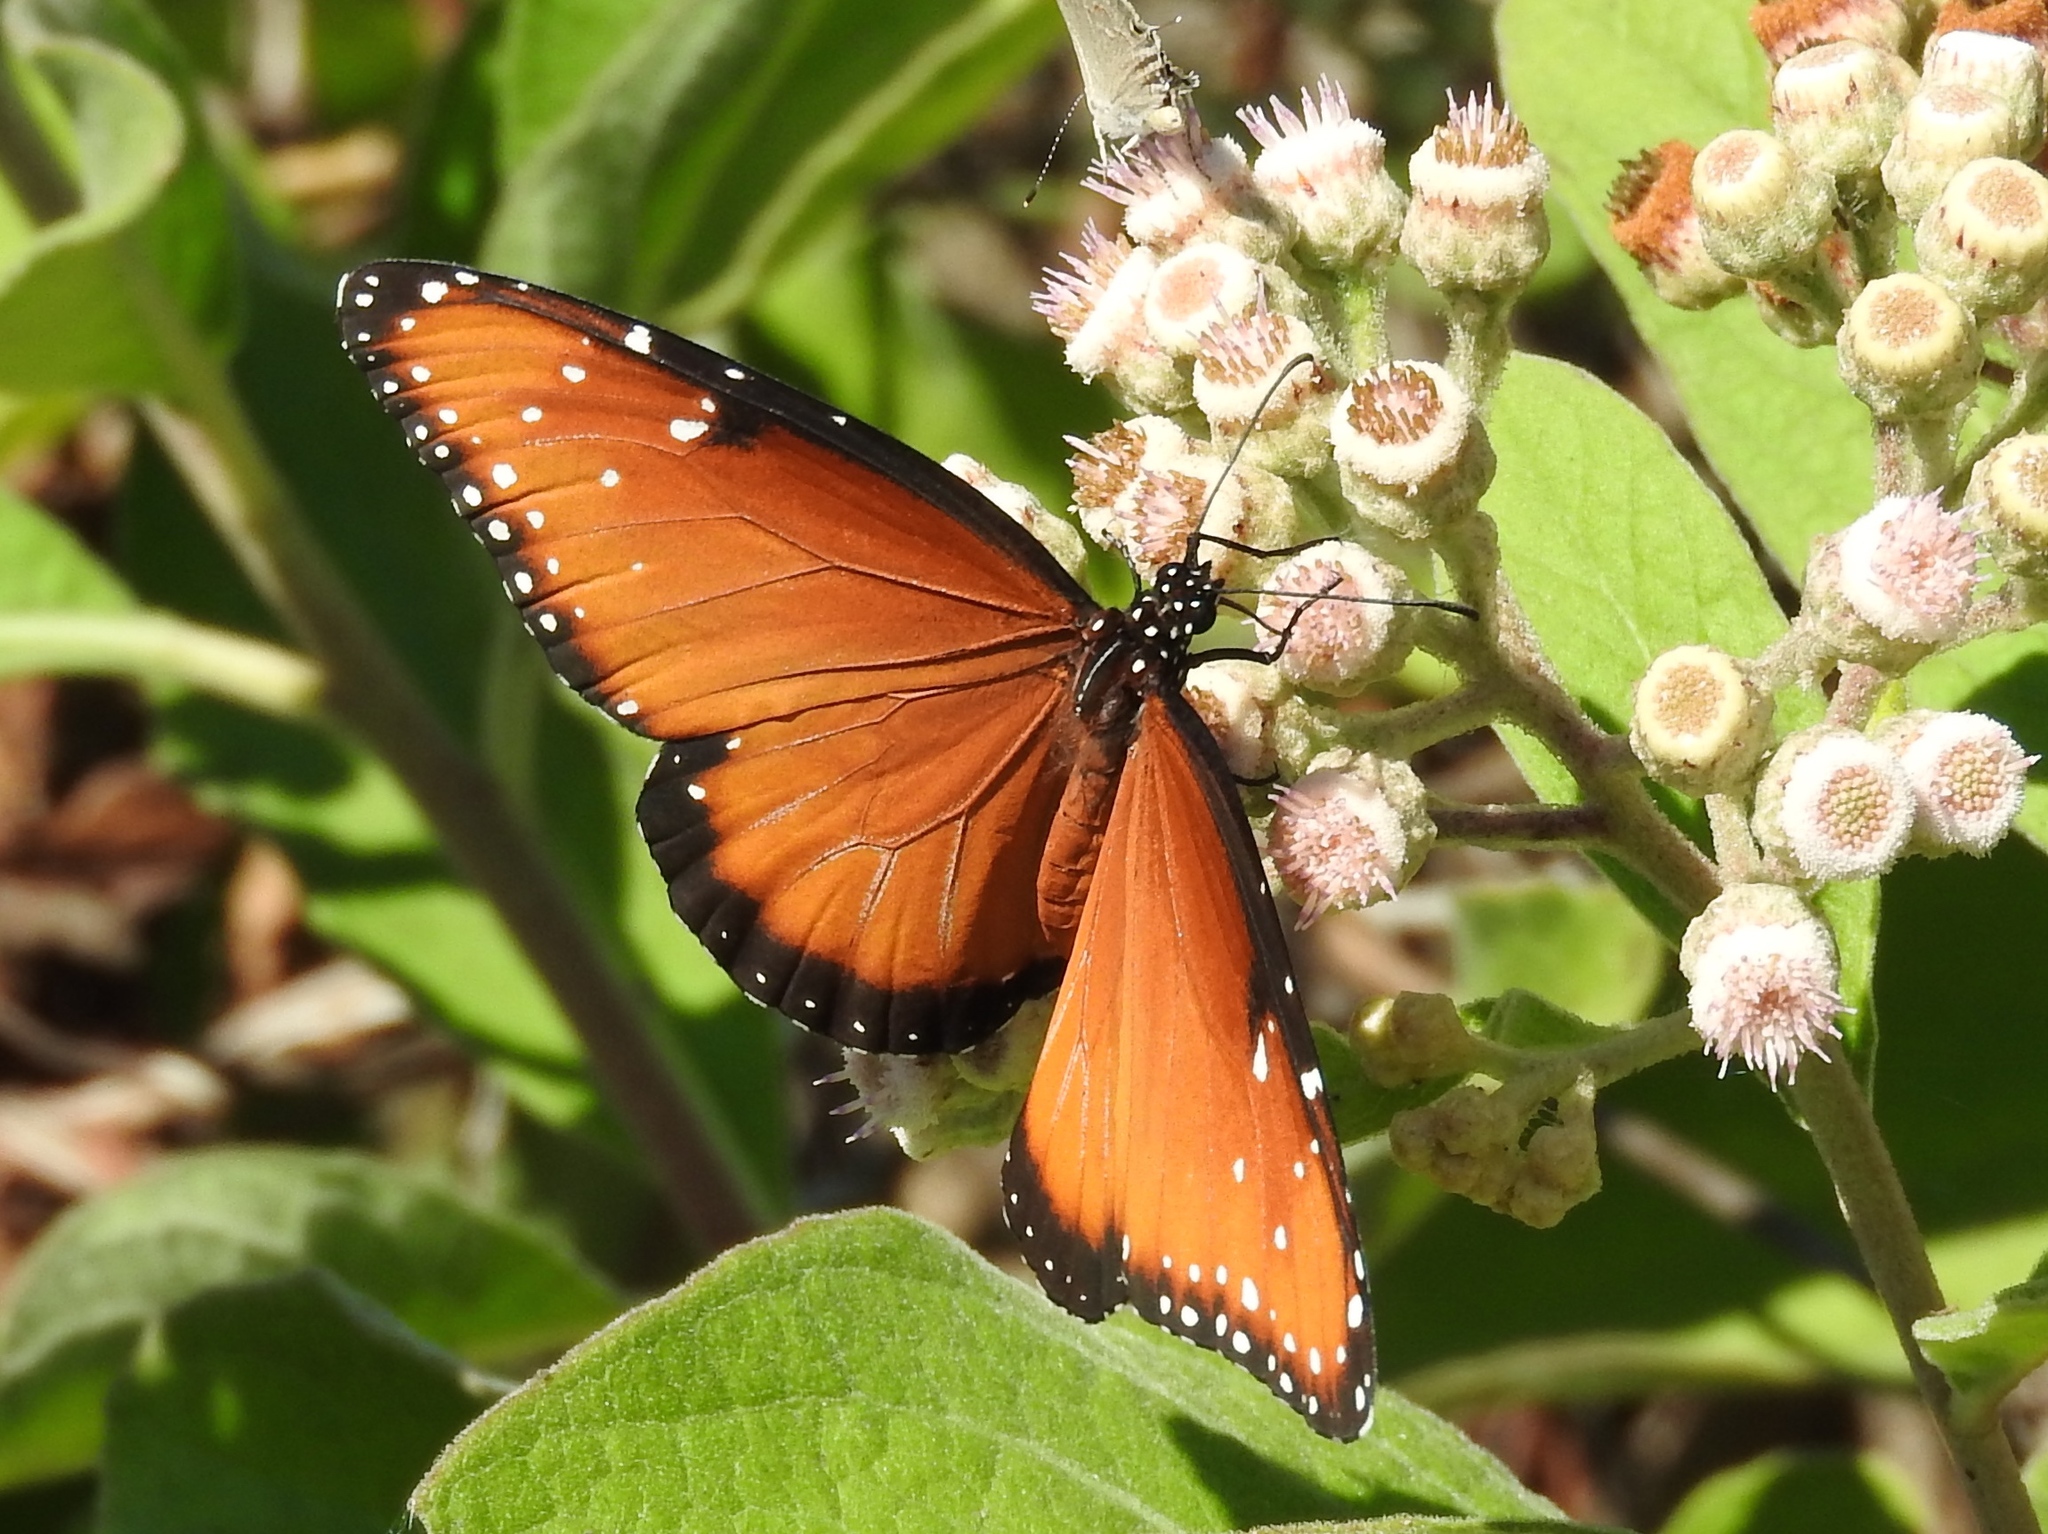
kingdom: Animalia
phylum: Arthropoda
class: Insecta
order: Lepidoptera
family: Nymphalidae
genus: Danaus
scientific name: Danaus gilippus
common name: Queen
